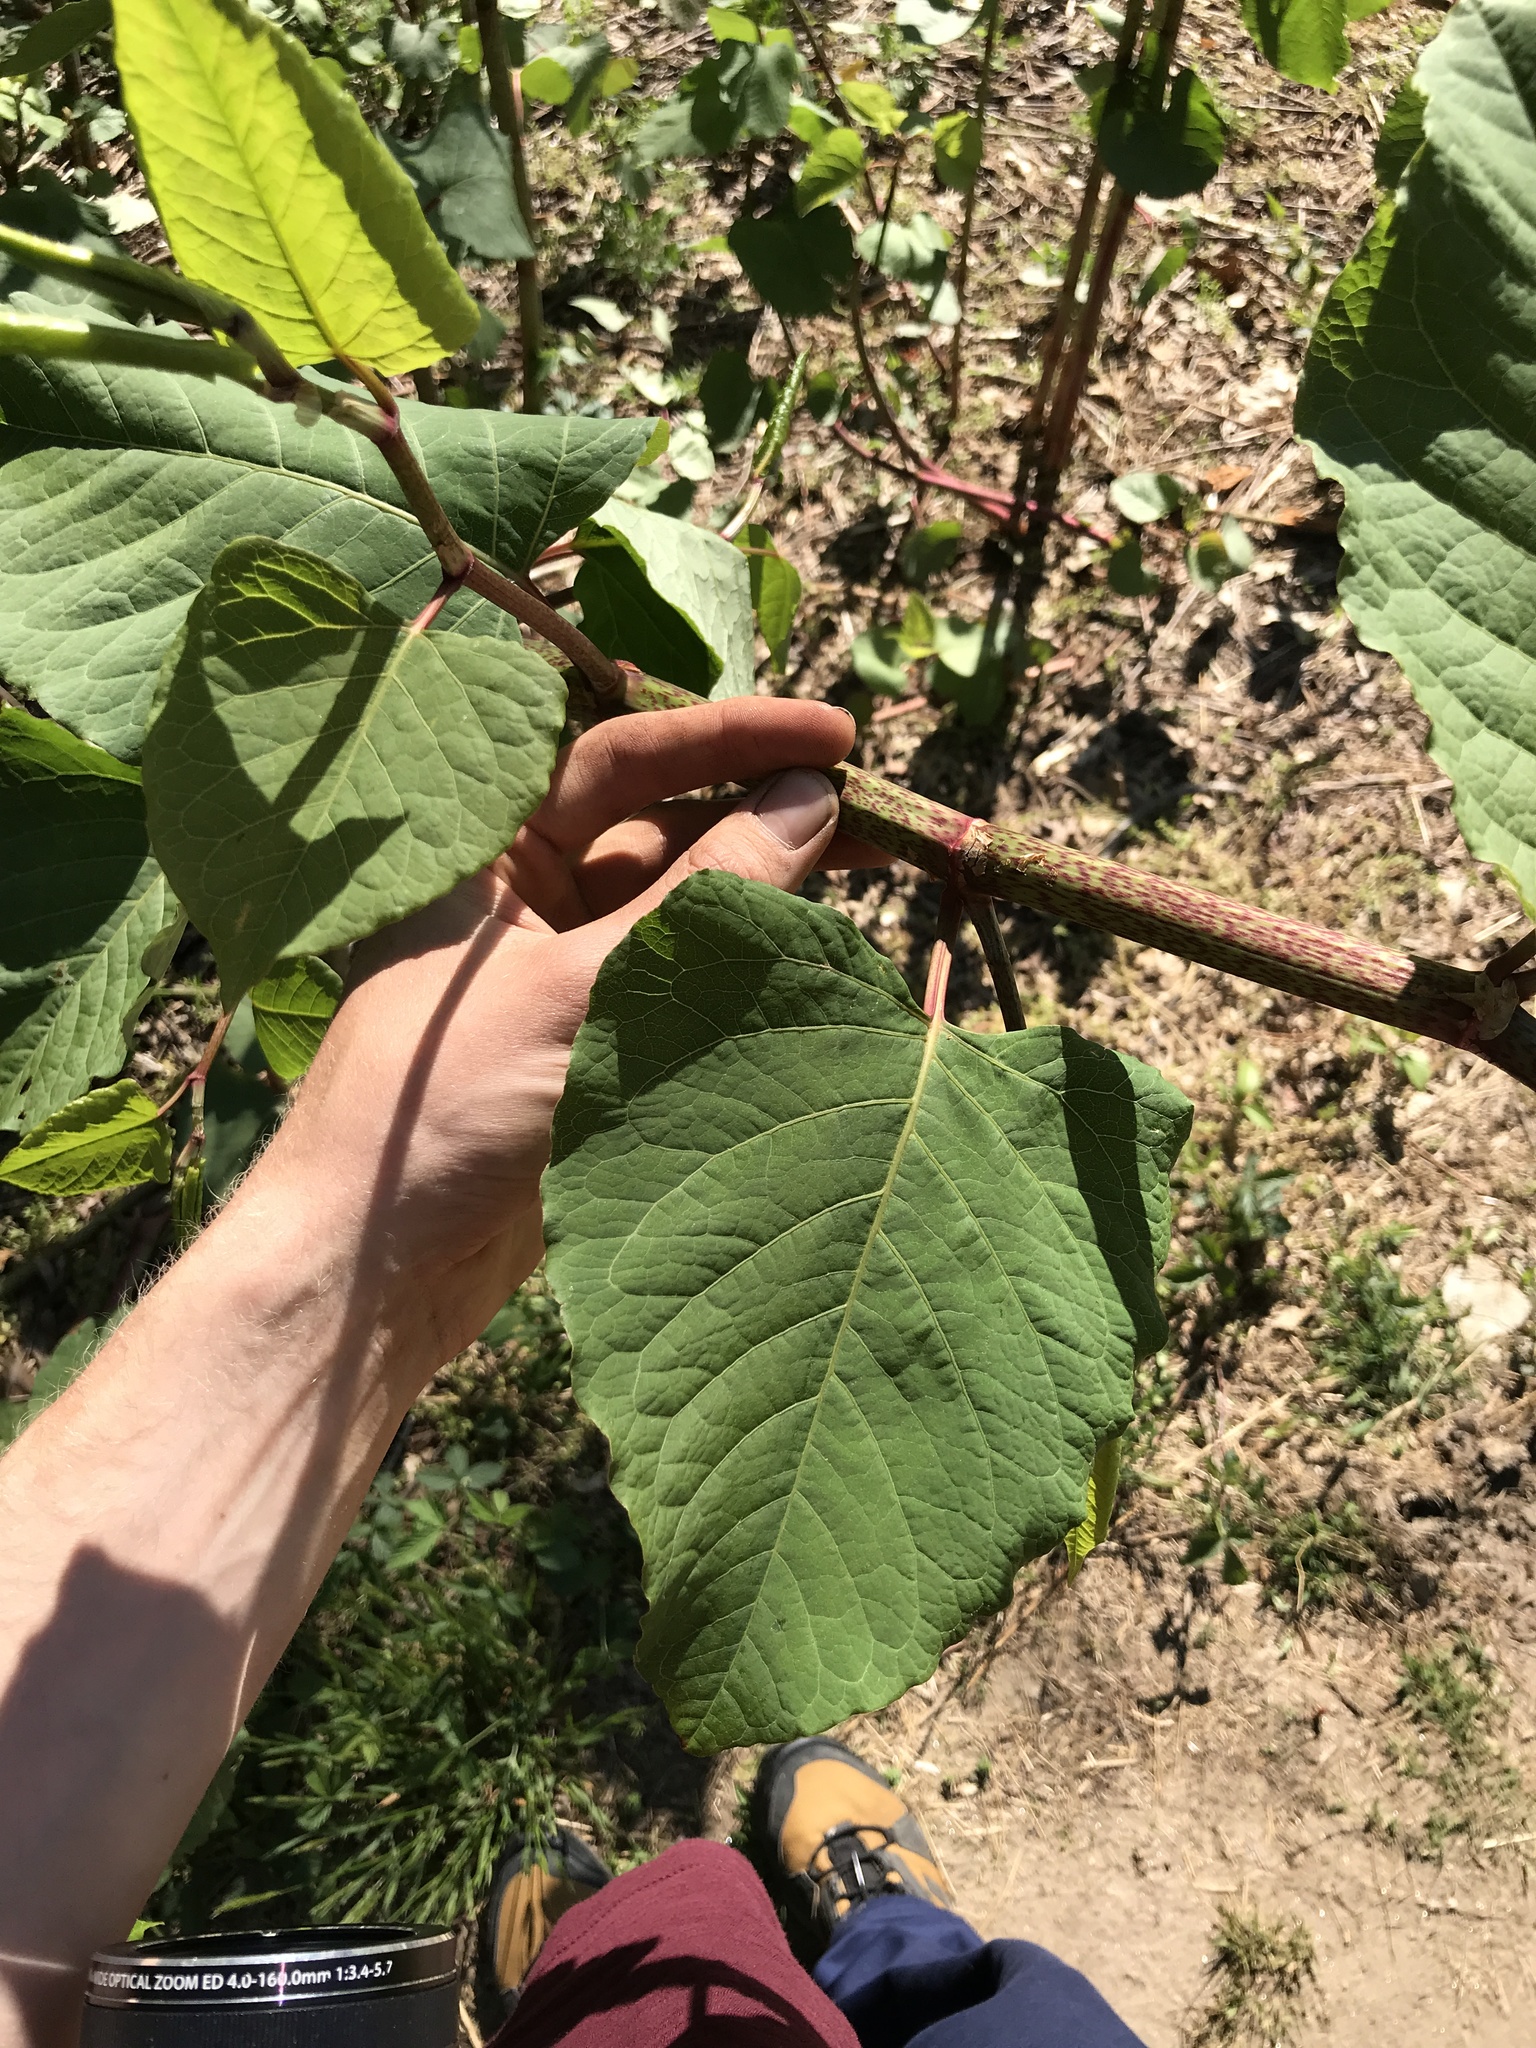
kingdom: Plantae
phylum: Tracheophyta
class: Magnoliopsida
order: Caryophyllales
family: Polygonaceae
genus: Reynoutria
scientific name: Reynoutria japonica
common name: Japanese knotweed
